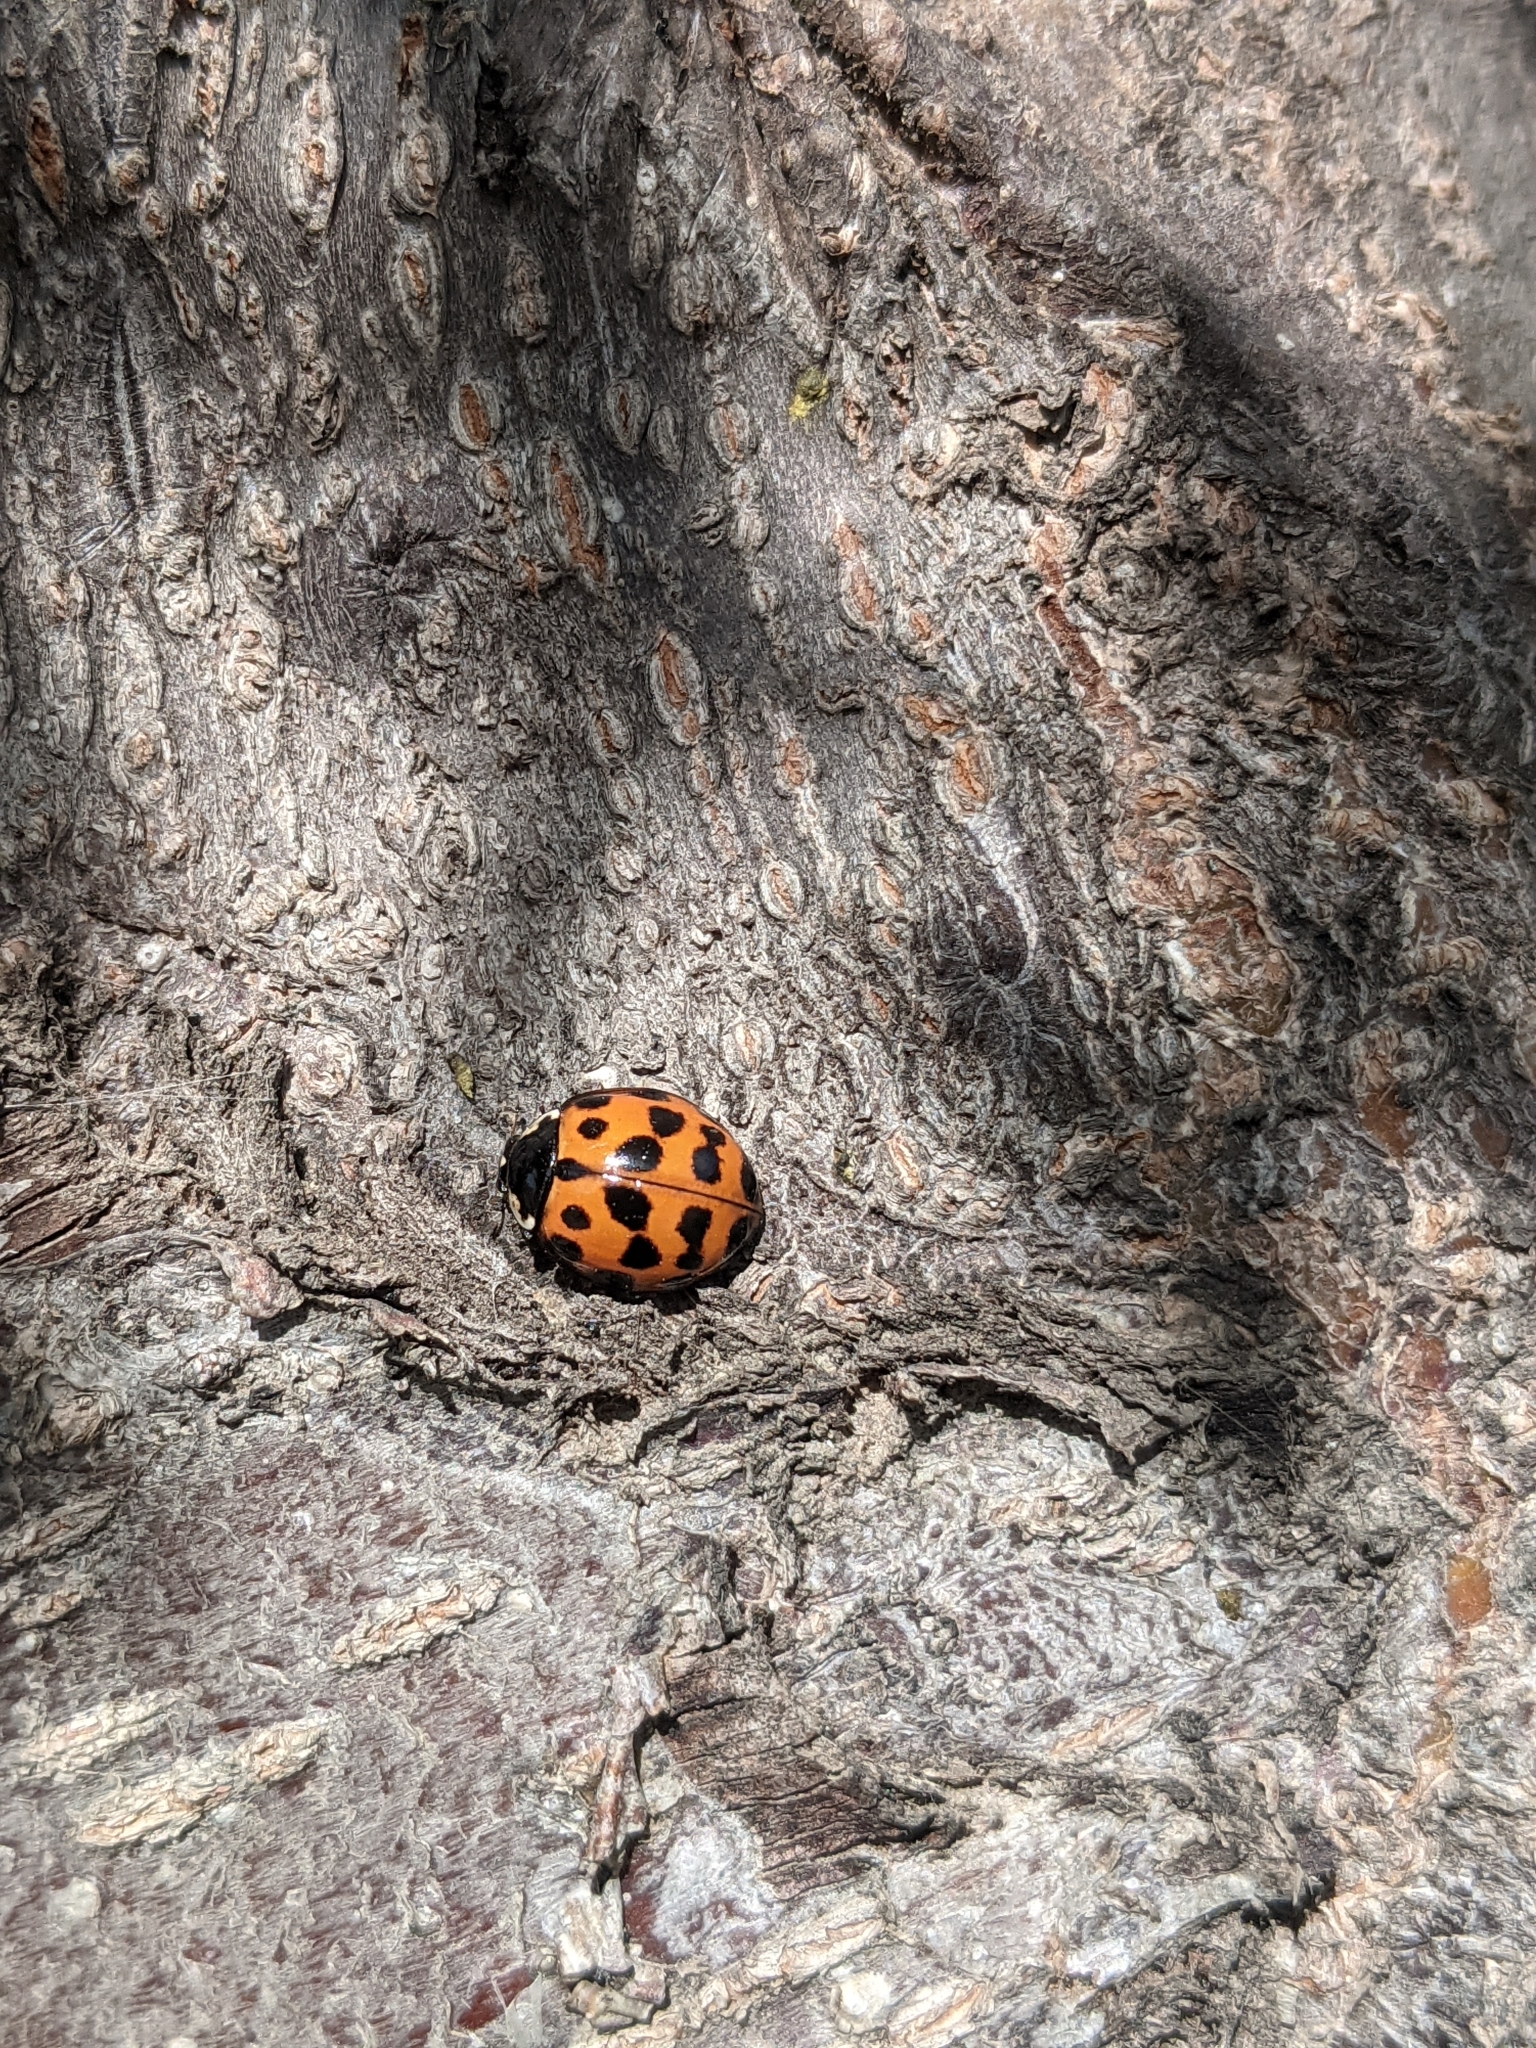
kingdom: Animalia
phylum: Arthropoda
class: Insecta
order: Coleoptera
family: Coccinellidae
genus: Harmonia
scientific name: Harmonia axyridis
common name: Harlequin ladybird
